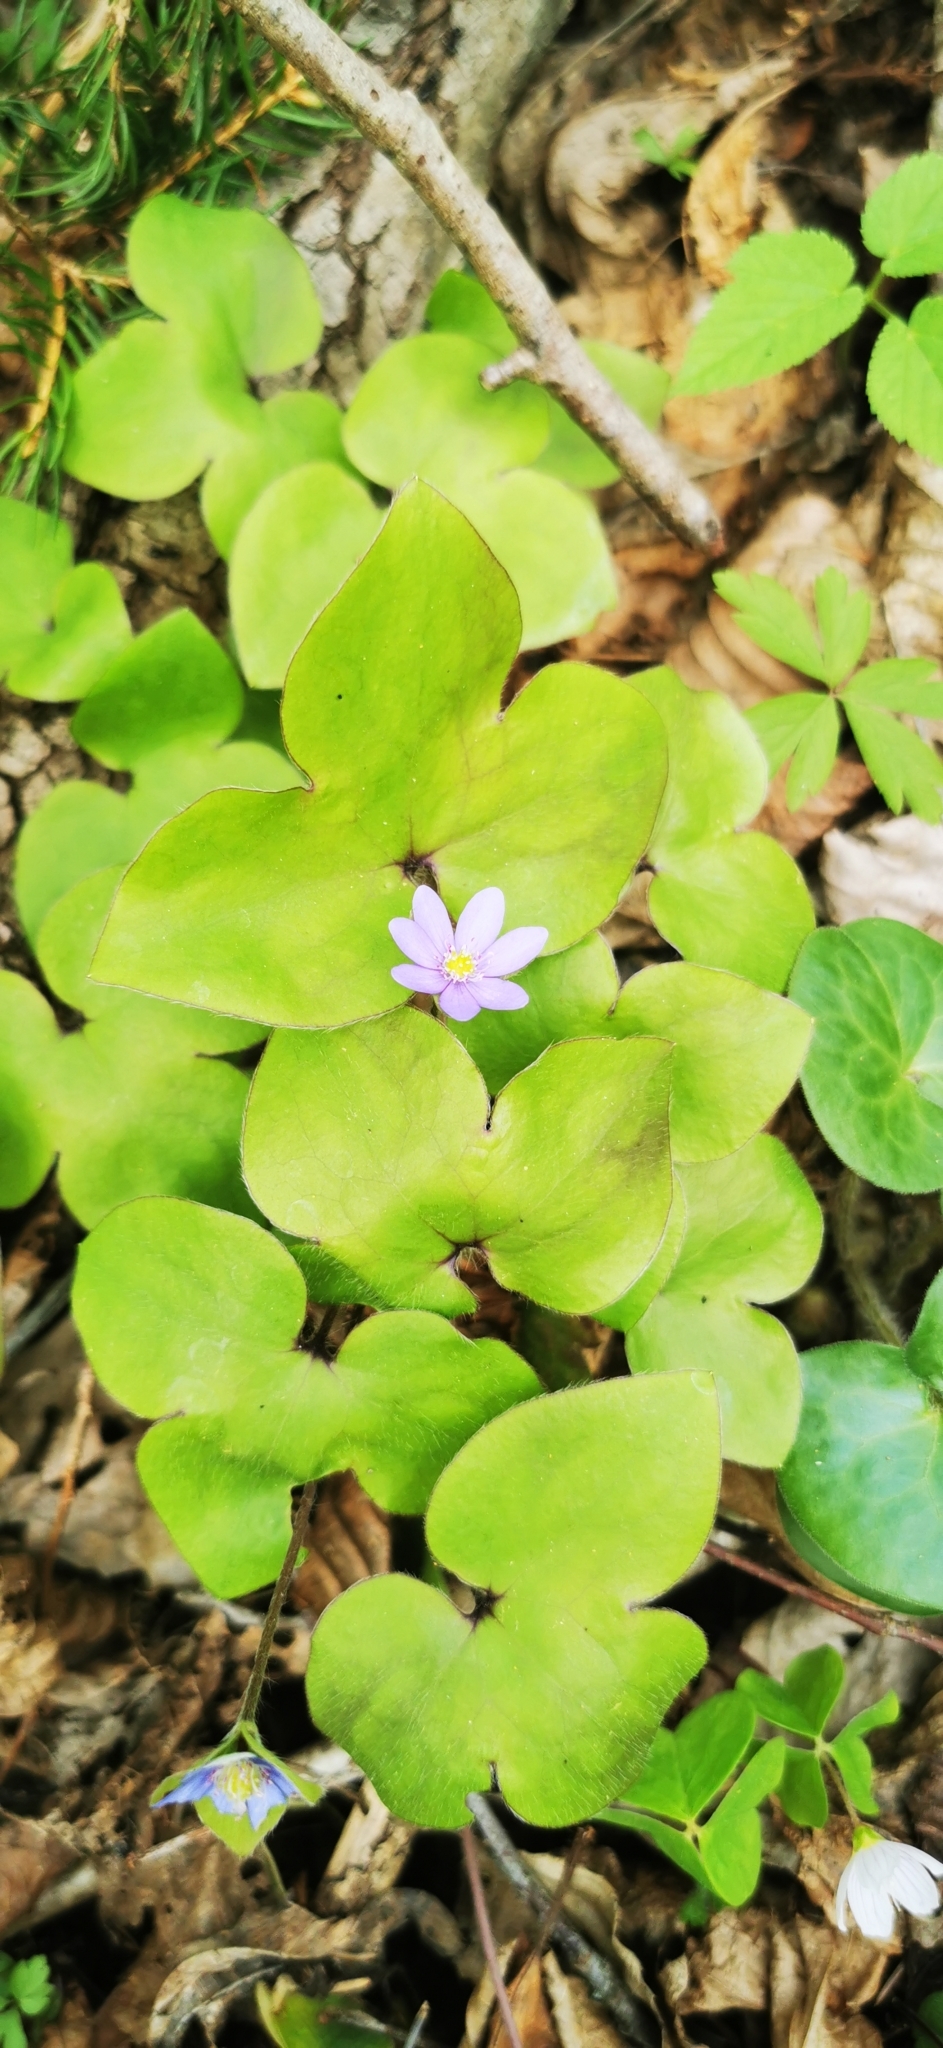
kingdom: Plantae
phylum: Tracheophyta
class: Magnoliopsida
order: Ranunculales
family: Ranunculaceae
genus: Hepatica
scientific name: Hepatica nobilis
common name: Liverleaf
